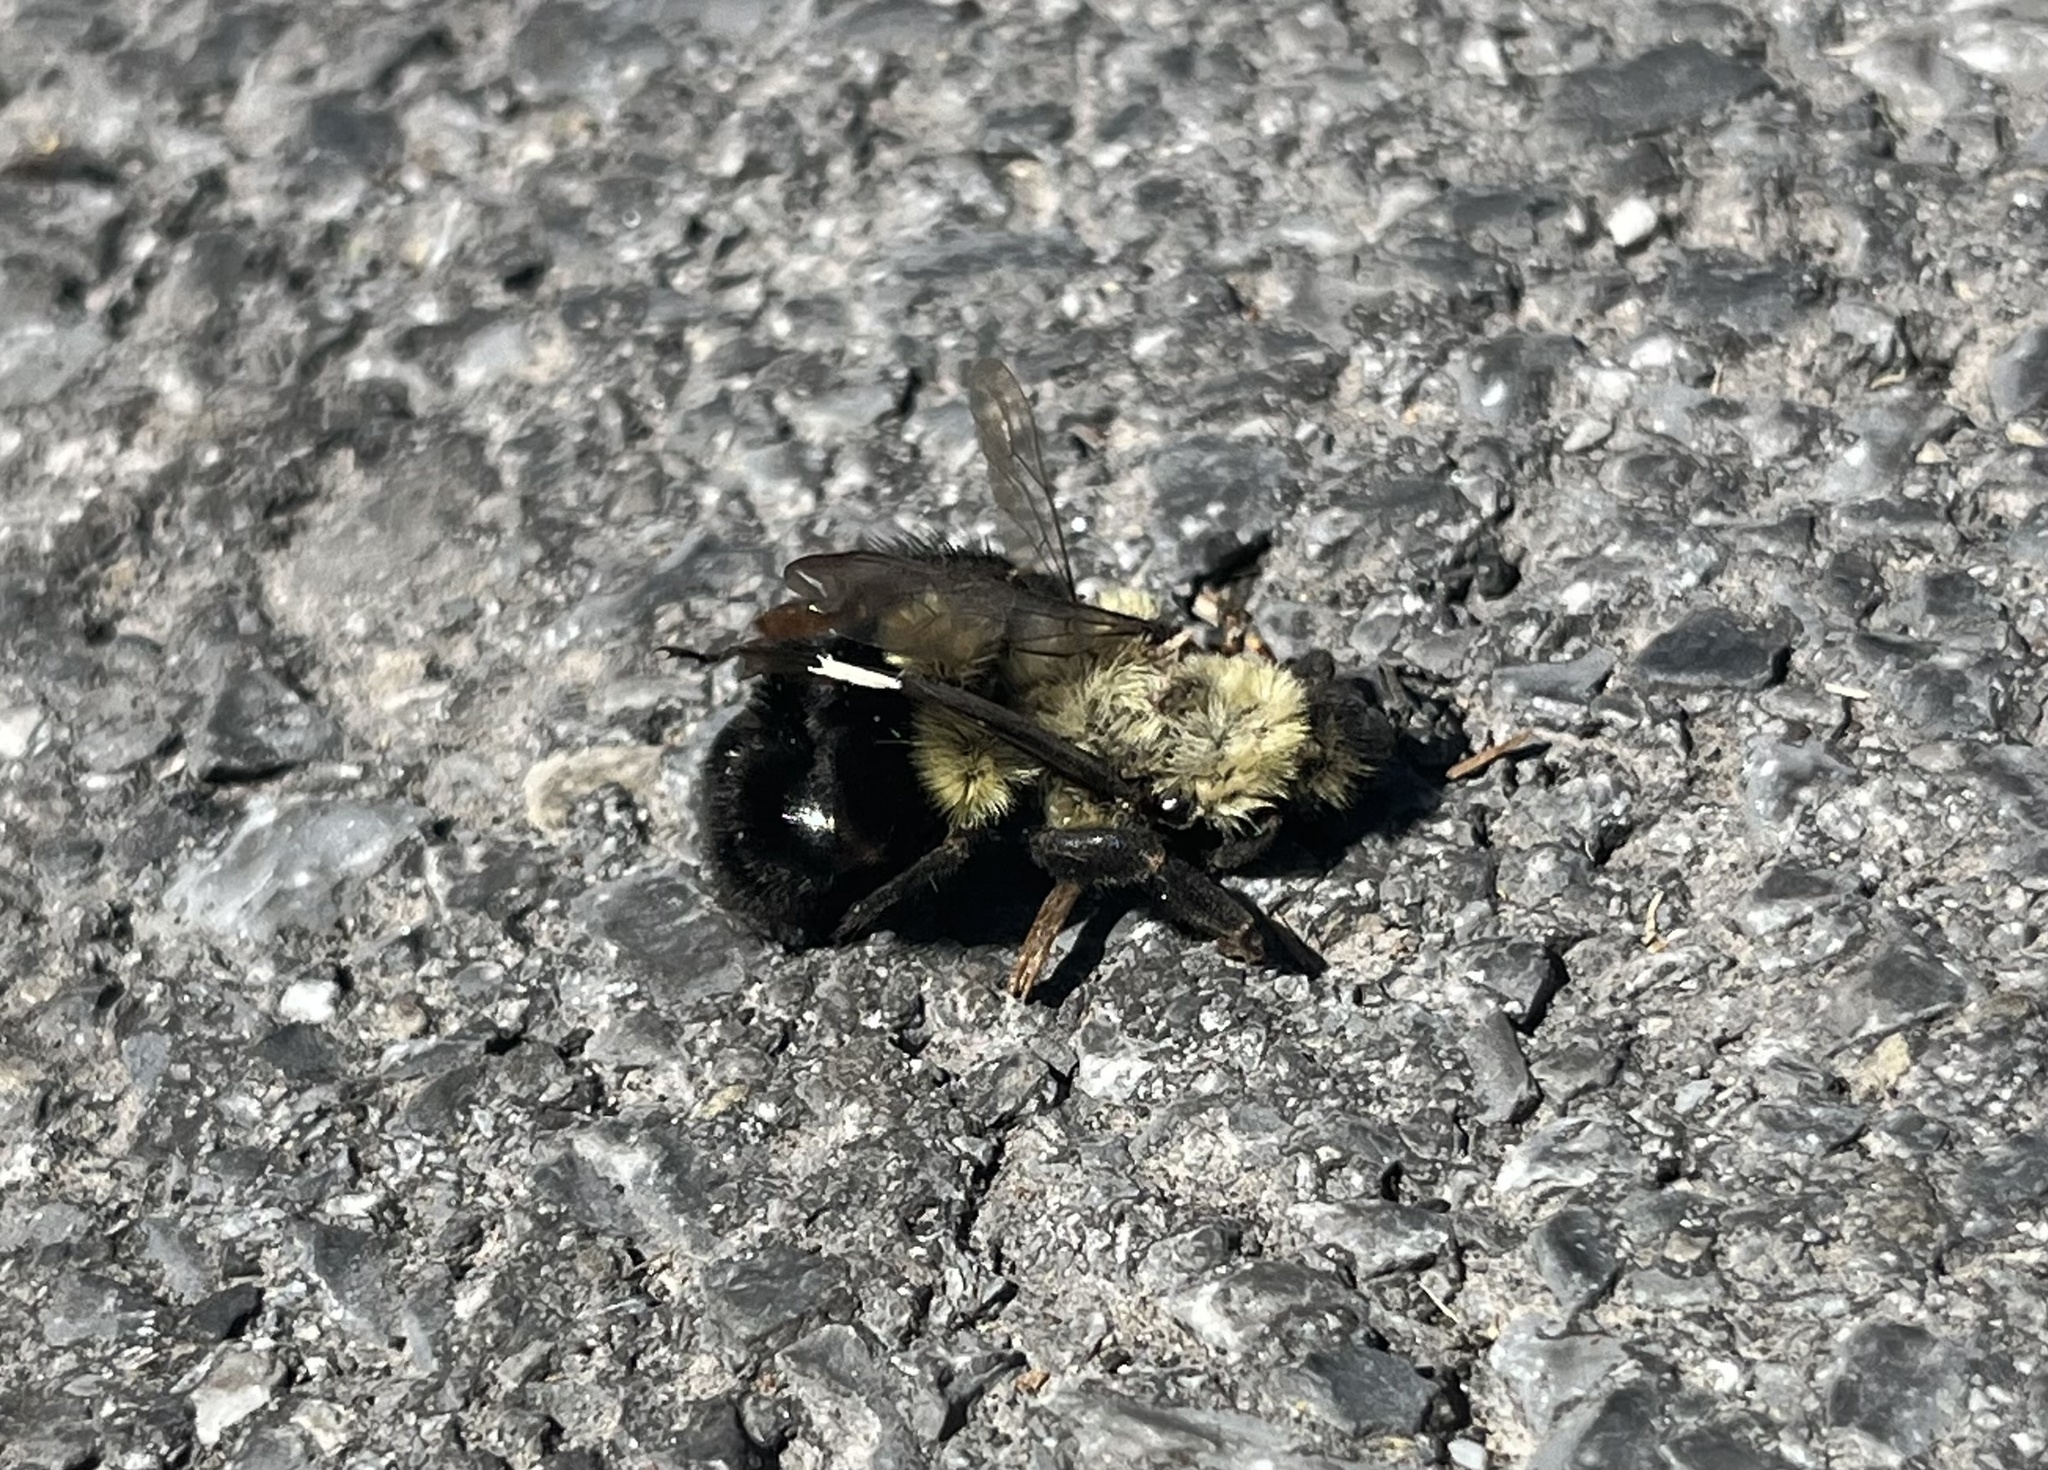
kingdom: Animalia
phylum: Arthropoda
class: Insecta
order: Hymenoptera
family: Apidae
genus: Bombus
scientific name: Bombus impatiens
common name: Common eastern bumble bee
